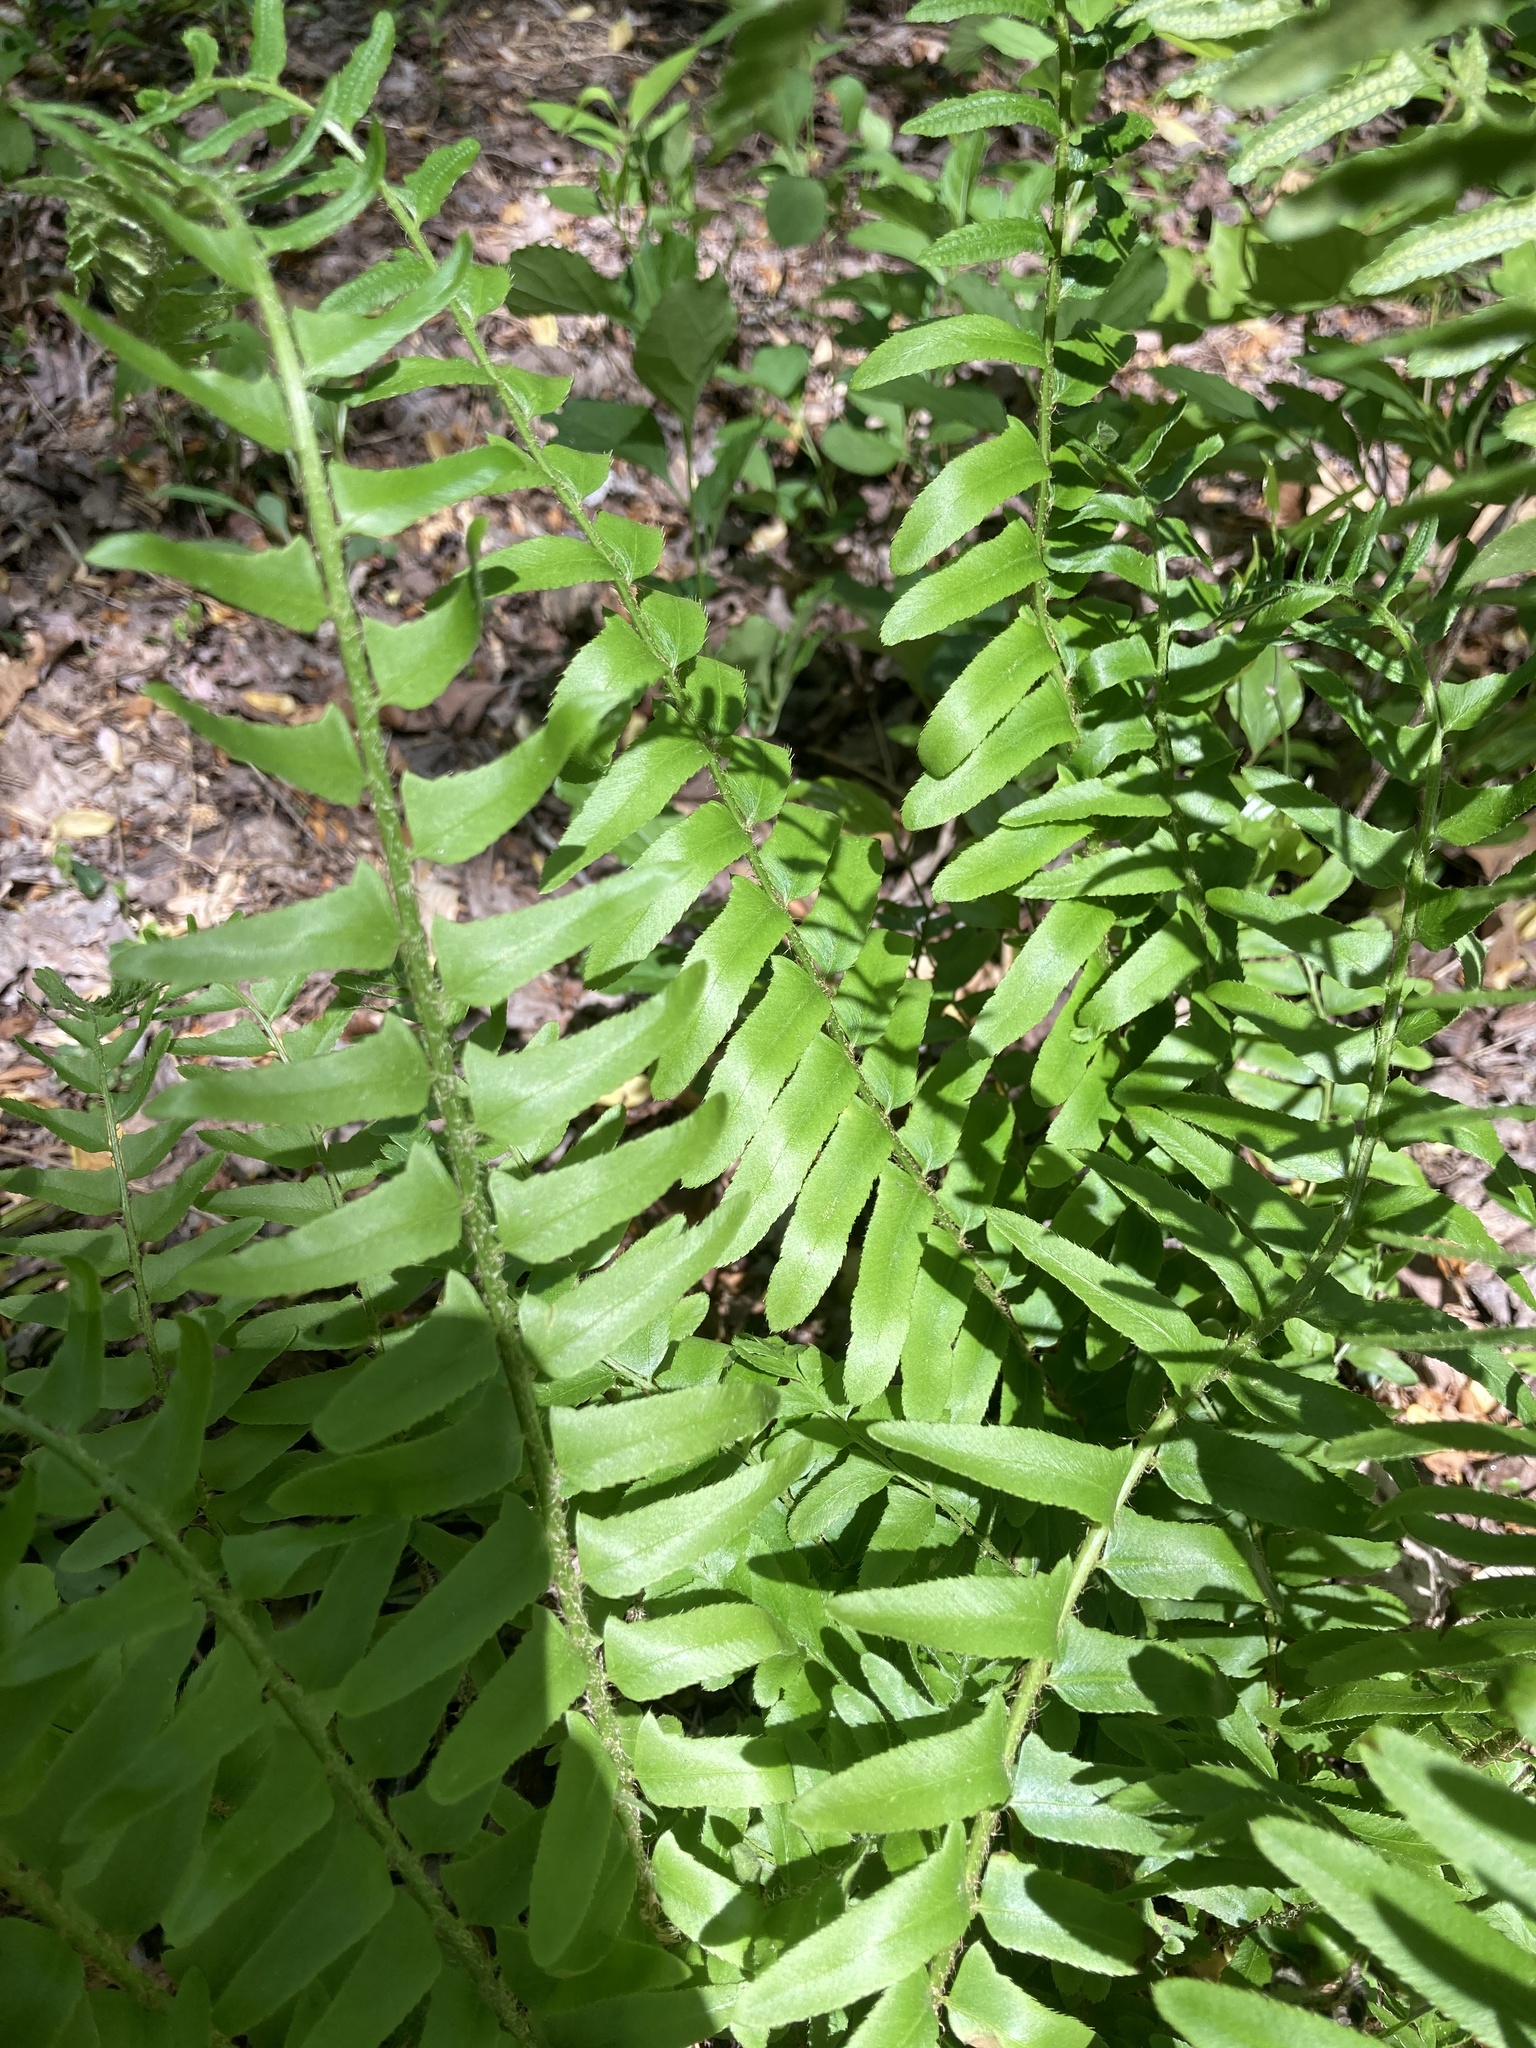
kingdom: Plantae
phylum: Tracheophyta
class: Polypodiopsida
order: Polypodiales
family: Dryopteridaceae
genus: Polystichum
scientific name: Polystichum acrostichoides
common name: Christmas fern
